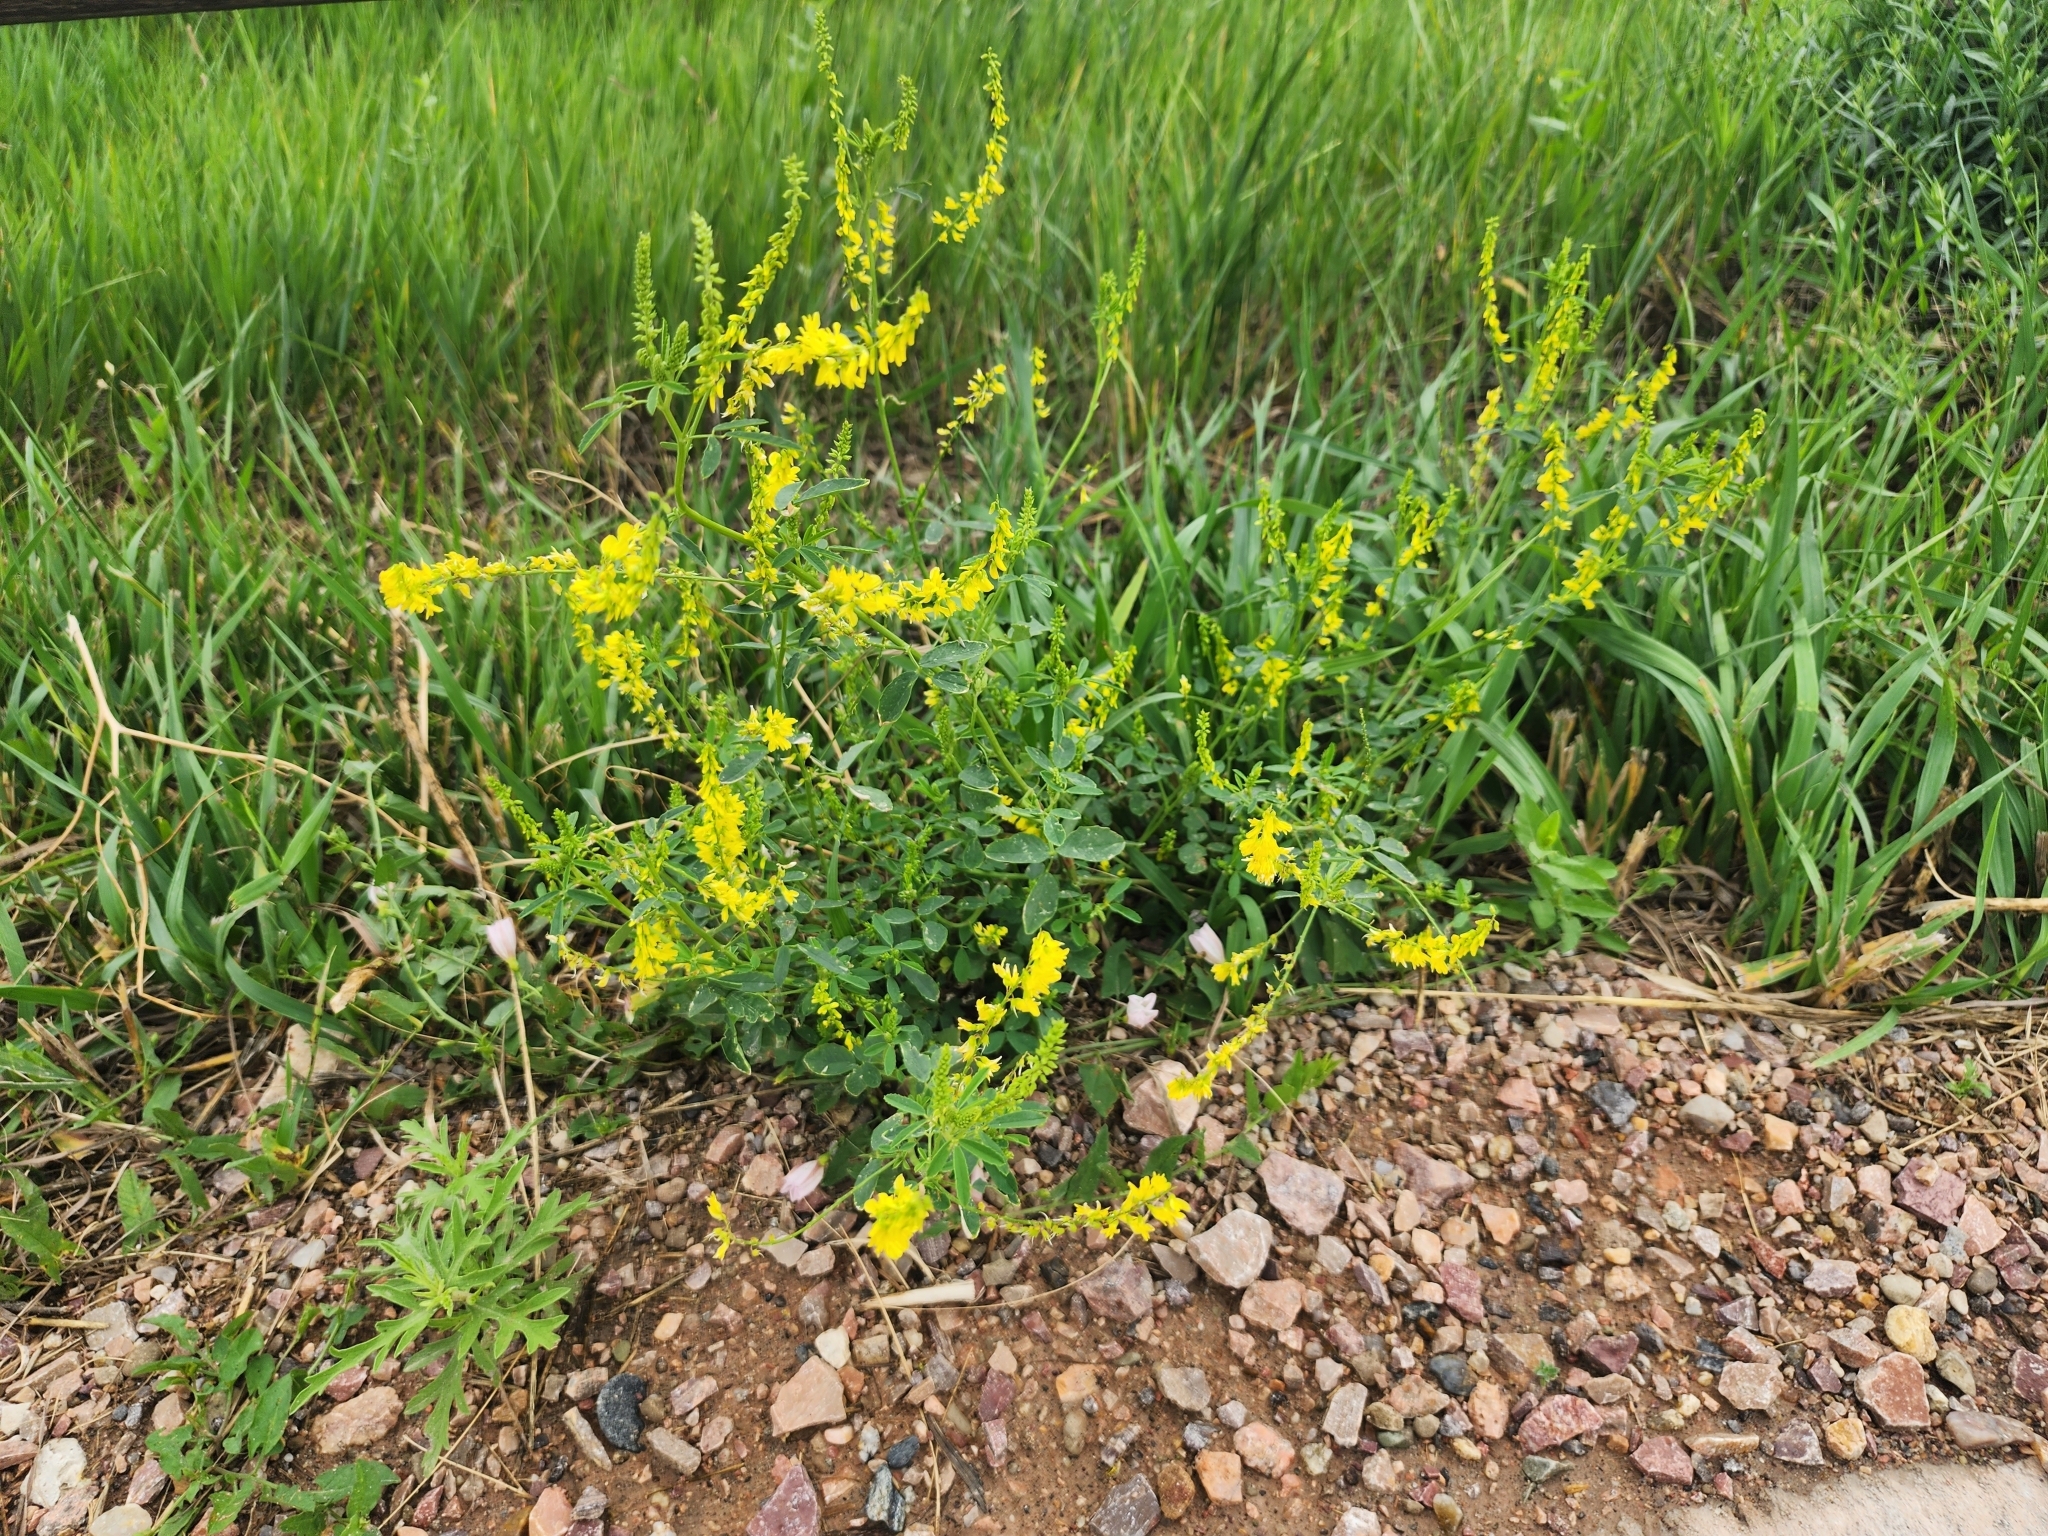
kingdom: Plantae
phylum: Tracheophyta
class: Magnoliopsida
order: Fabales
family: Fabaceae
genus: Melilotus
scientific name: Melilotus officinalis
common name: Sweetclover
